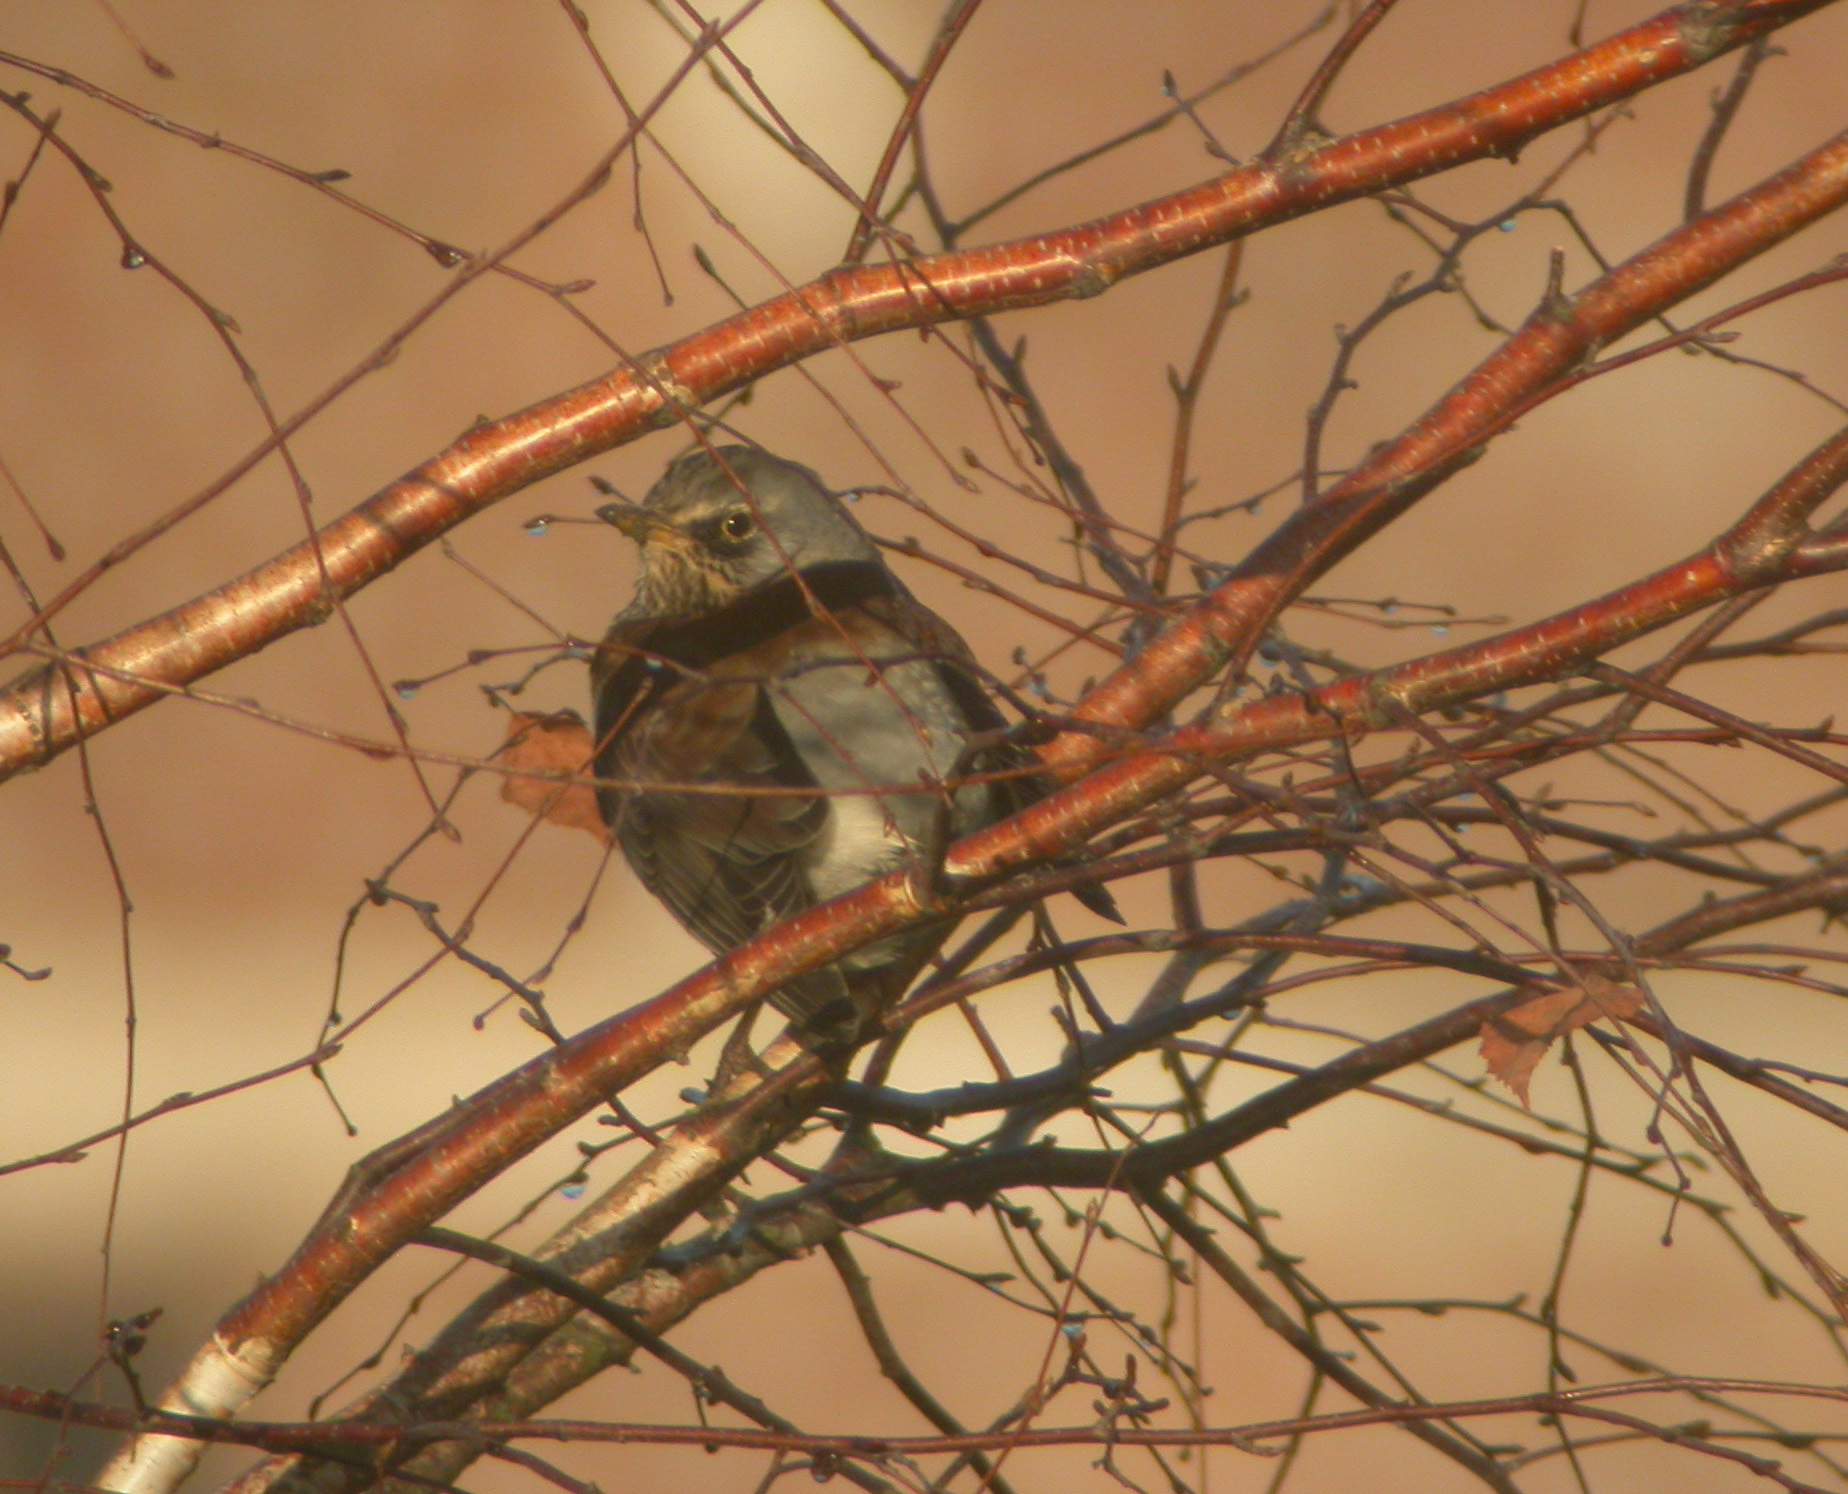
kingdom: Animalia
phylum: Chordata
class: Aves
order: Passeriformes
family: Turdidae
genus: Turdus
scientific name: Turdus pilaris
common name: Fieldfare
